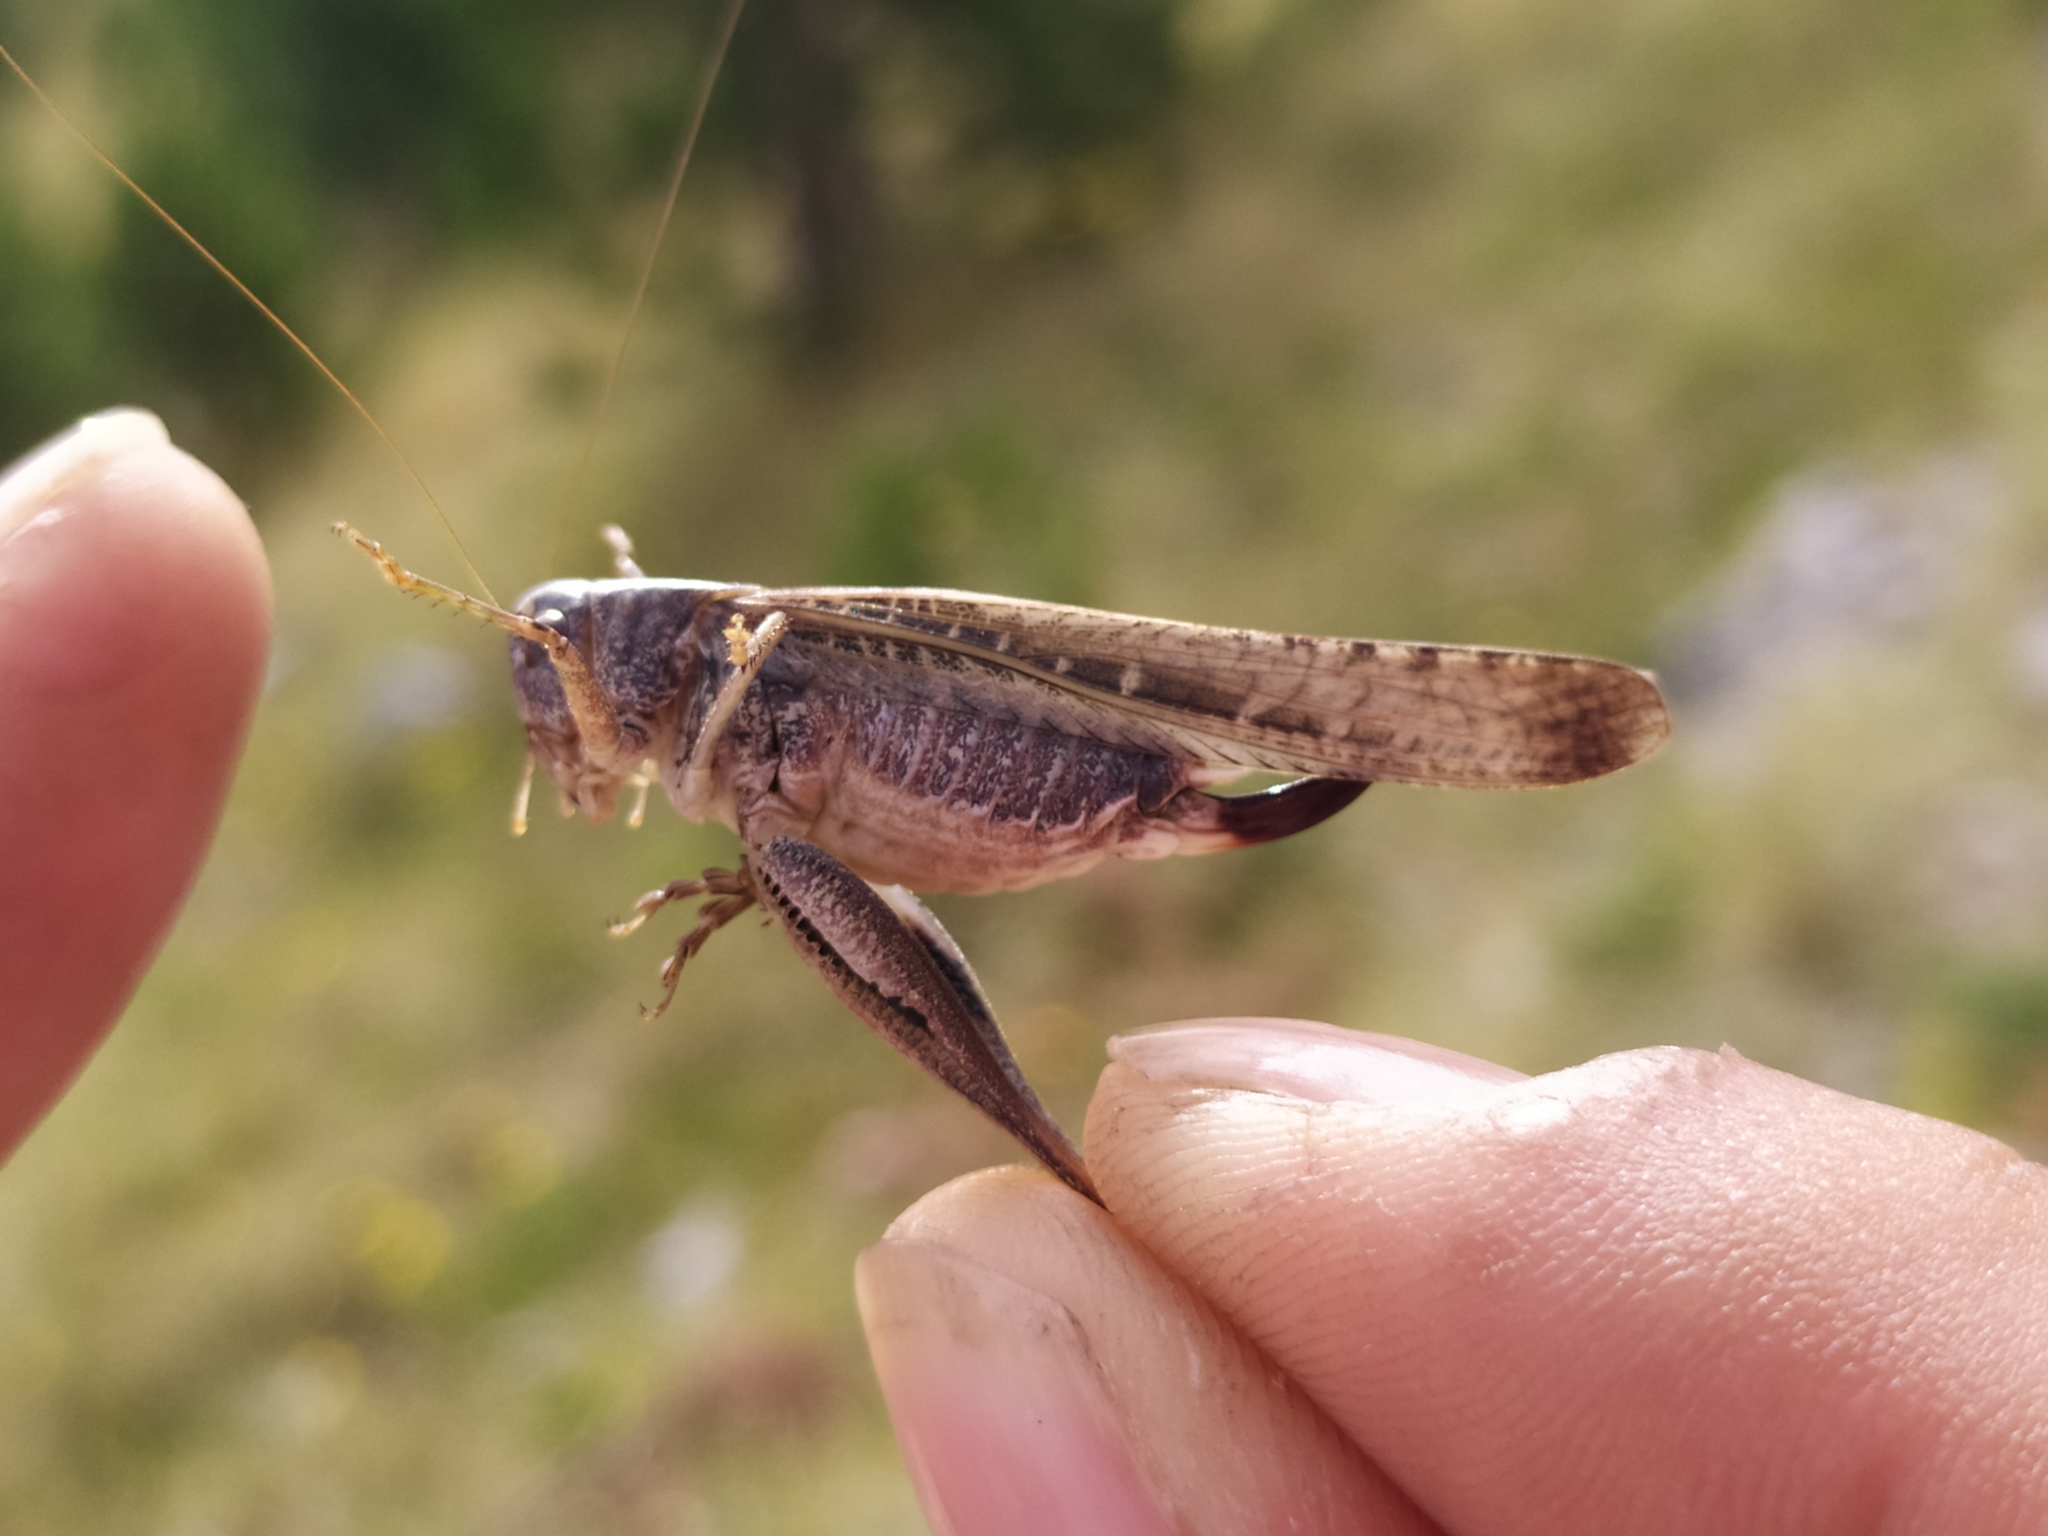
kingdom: Animalia
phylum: Arthropoda
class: Insecta
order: Orthoptera
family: Tettigoniidae
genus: Platycleis
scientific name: Platycleis grisea
